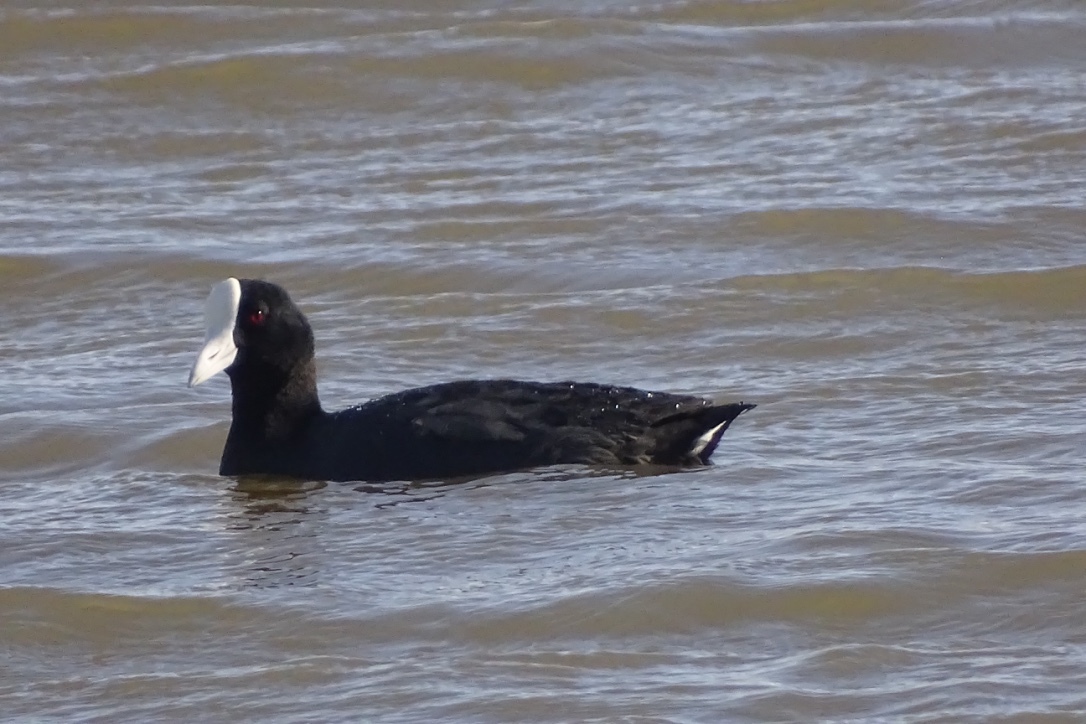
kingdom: Animalia
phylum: Chordata
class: Aves
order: Gruiformes
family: Rallidae
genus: Fulica
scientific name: Fulica alai
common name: Hawaiian coot
